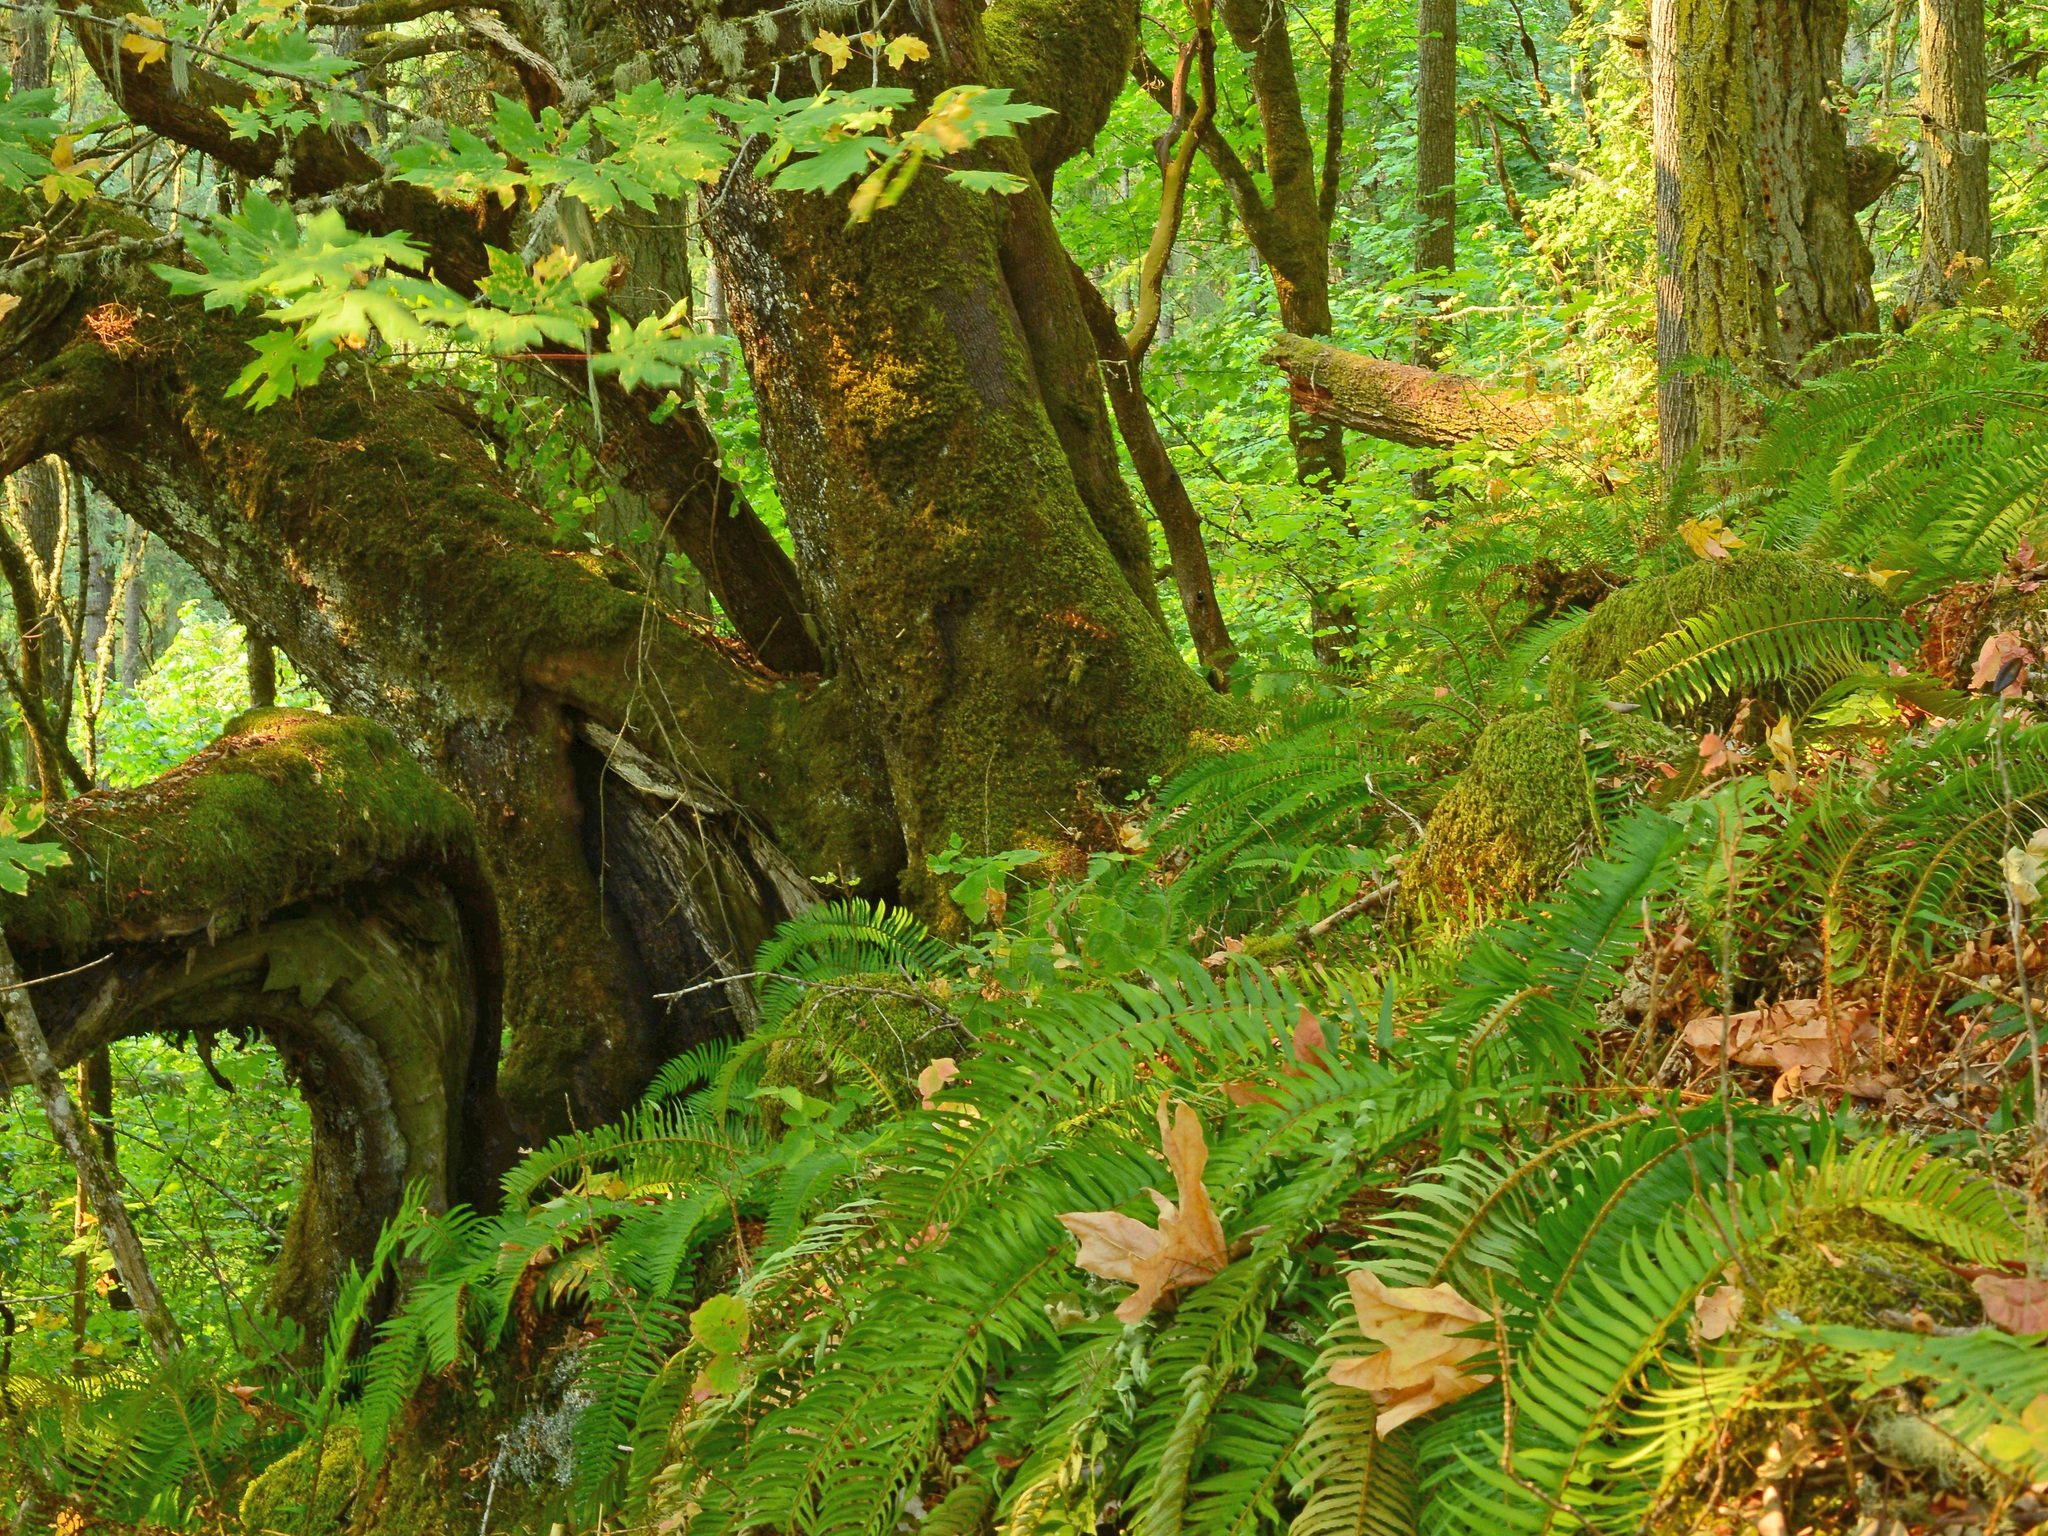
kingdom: Plantae
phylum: Tracheophyta
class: Polypodiopsida
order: Polypodiales
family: Dryopteridaceae
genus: Polystichum
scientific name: Polystichum munitum
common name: Western sword-fern
